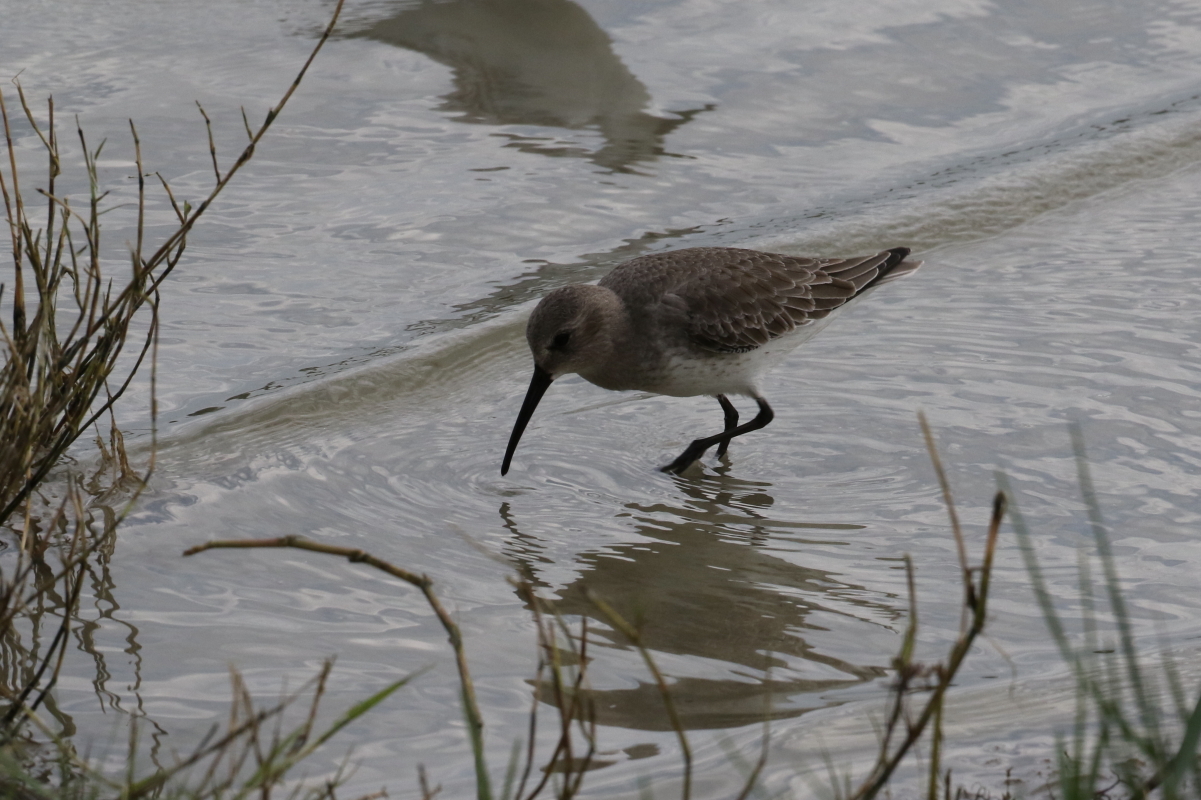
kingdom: Animalia
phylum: Chordata
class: Aves
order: Charadriiformes
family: Scolopacidae
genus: Calidris
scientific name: Calidris alpina
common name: Dunlin
